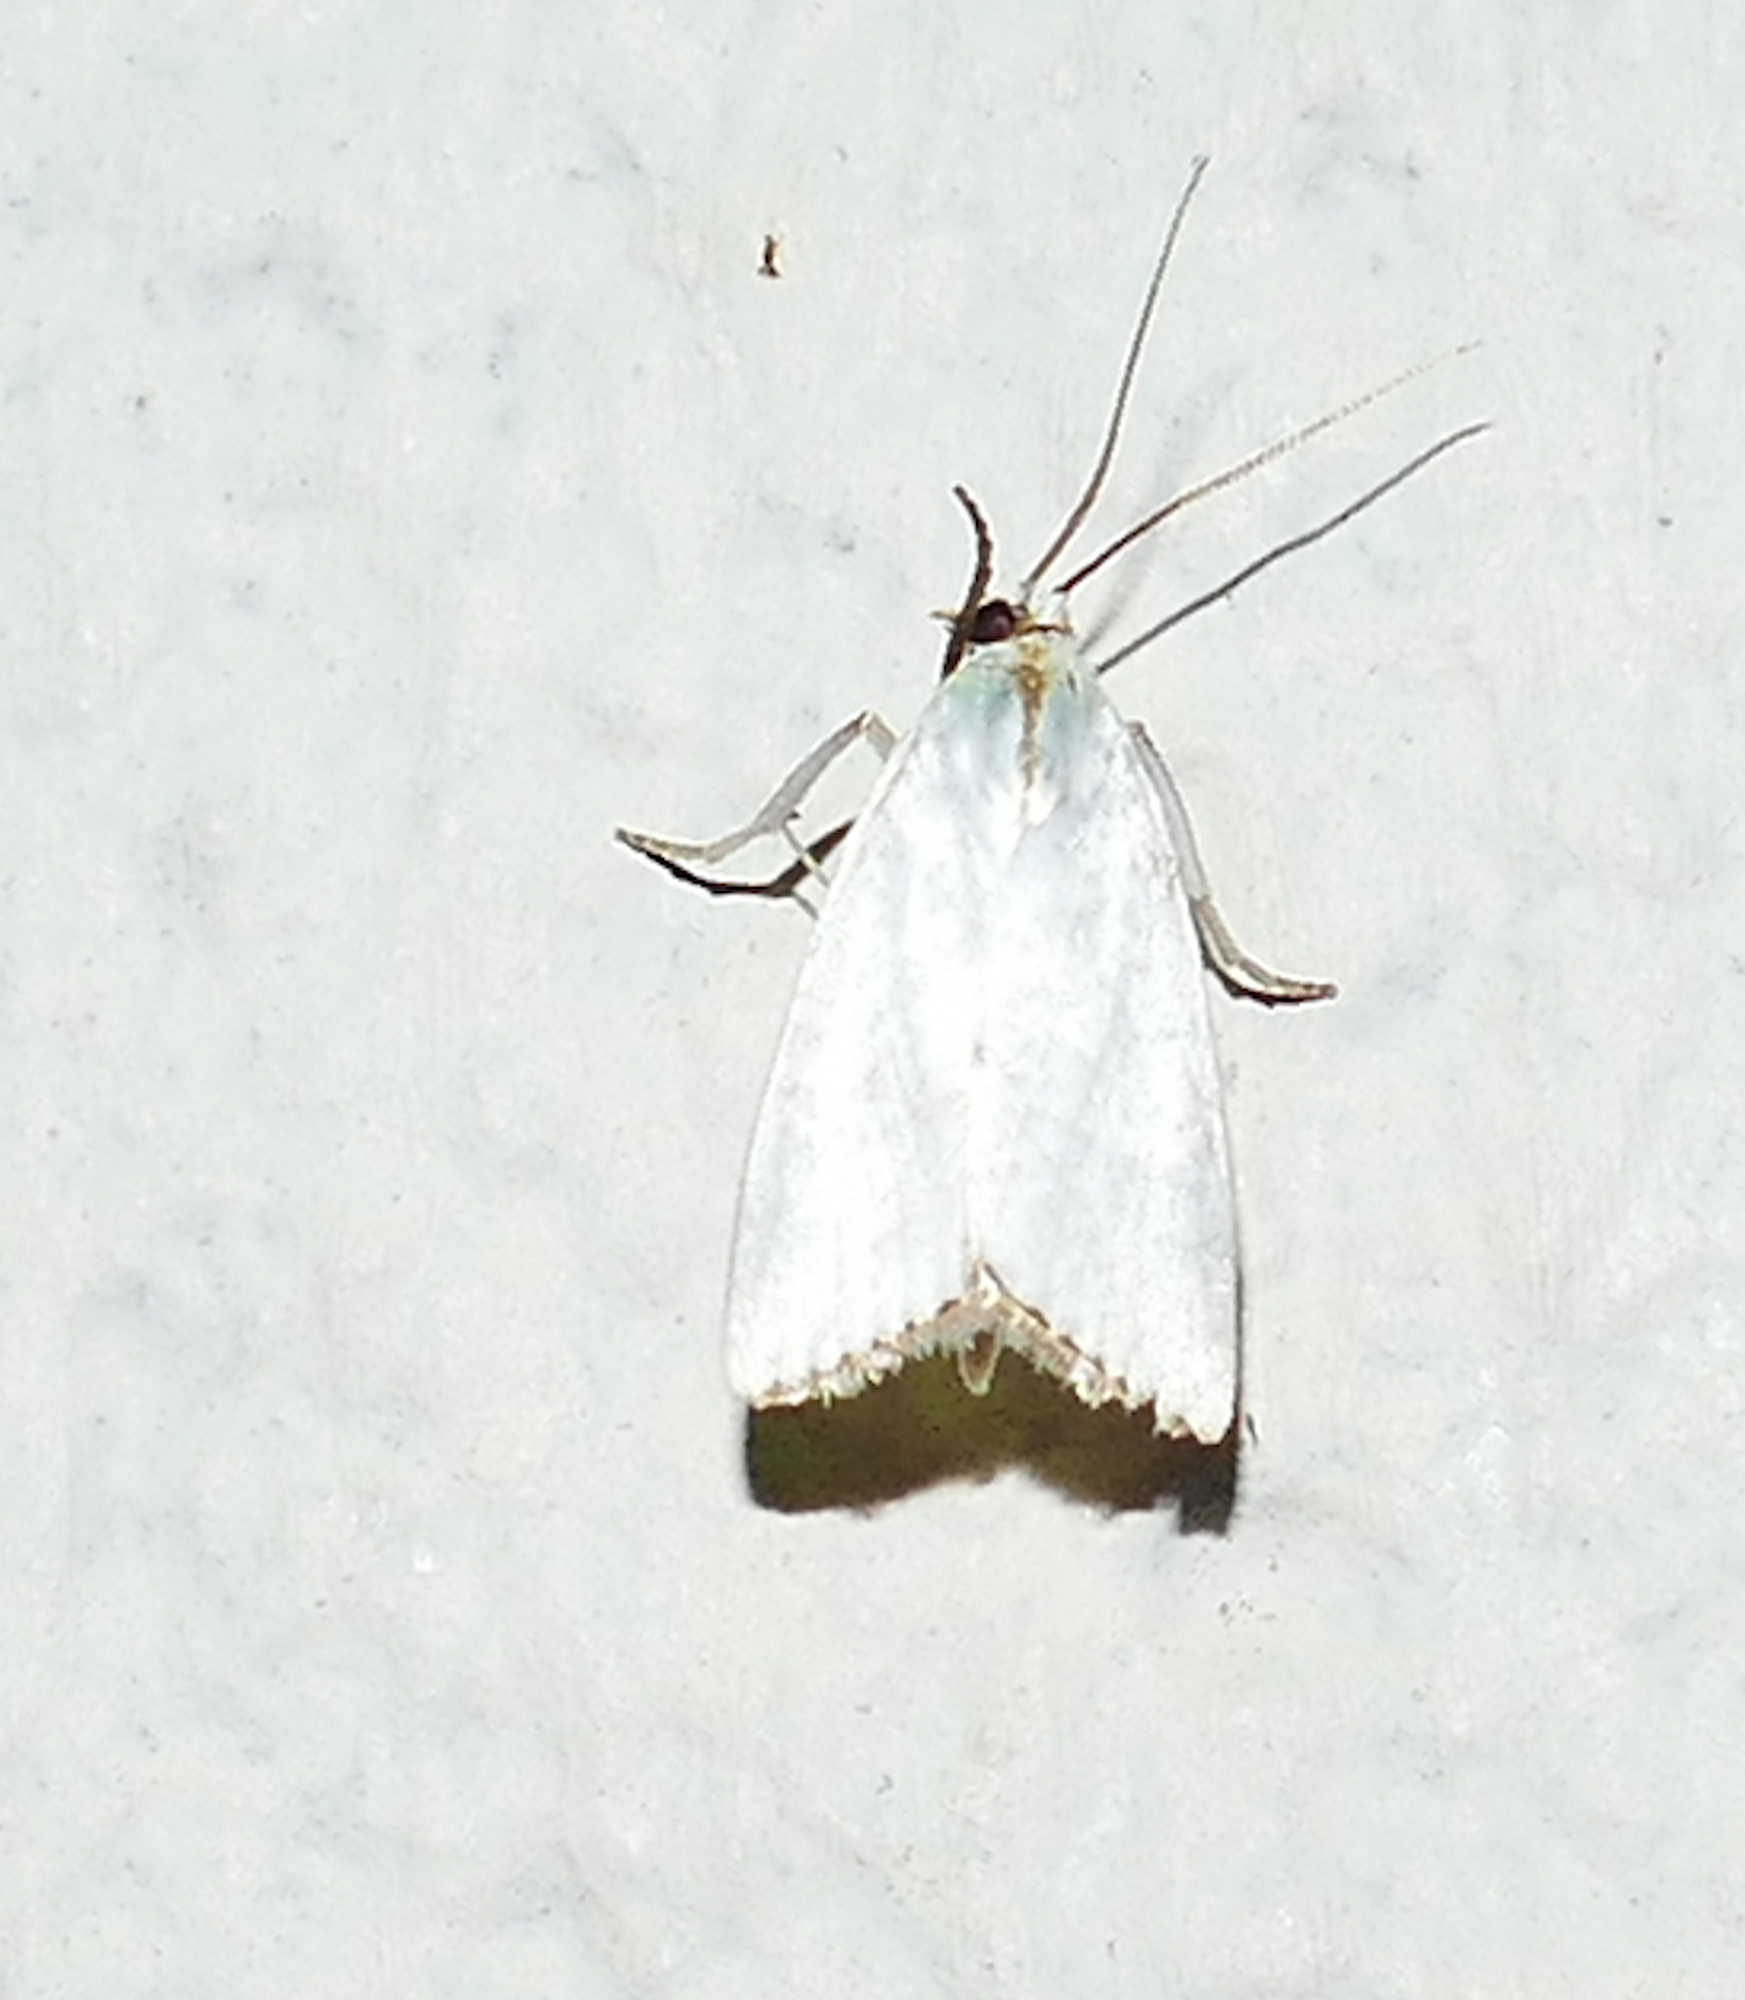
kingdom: Animalia
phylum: Arthropoda
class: Insecta
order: Lepidoptera
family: Crambidae
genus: Argyria
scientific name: Argyria nivalis
